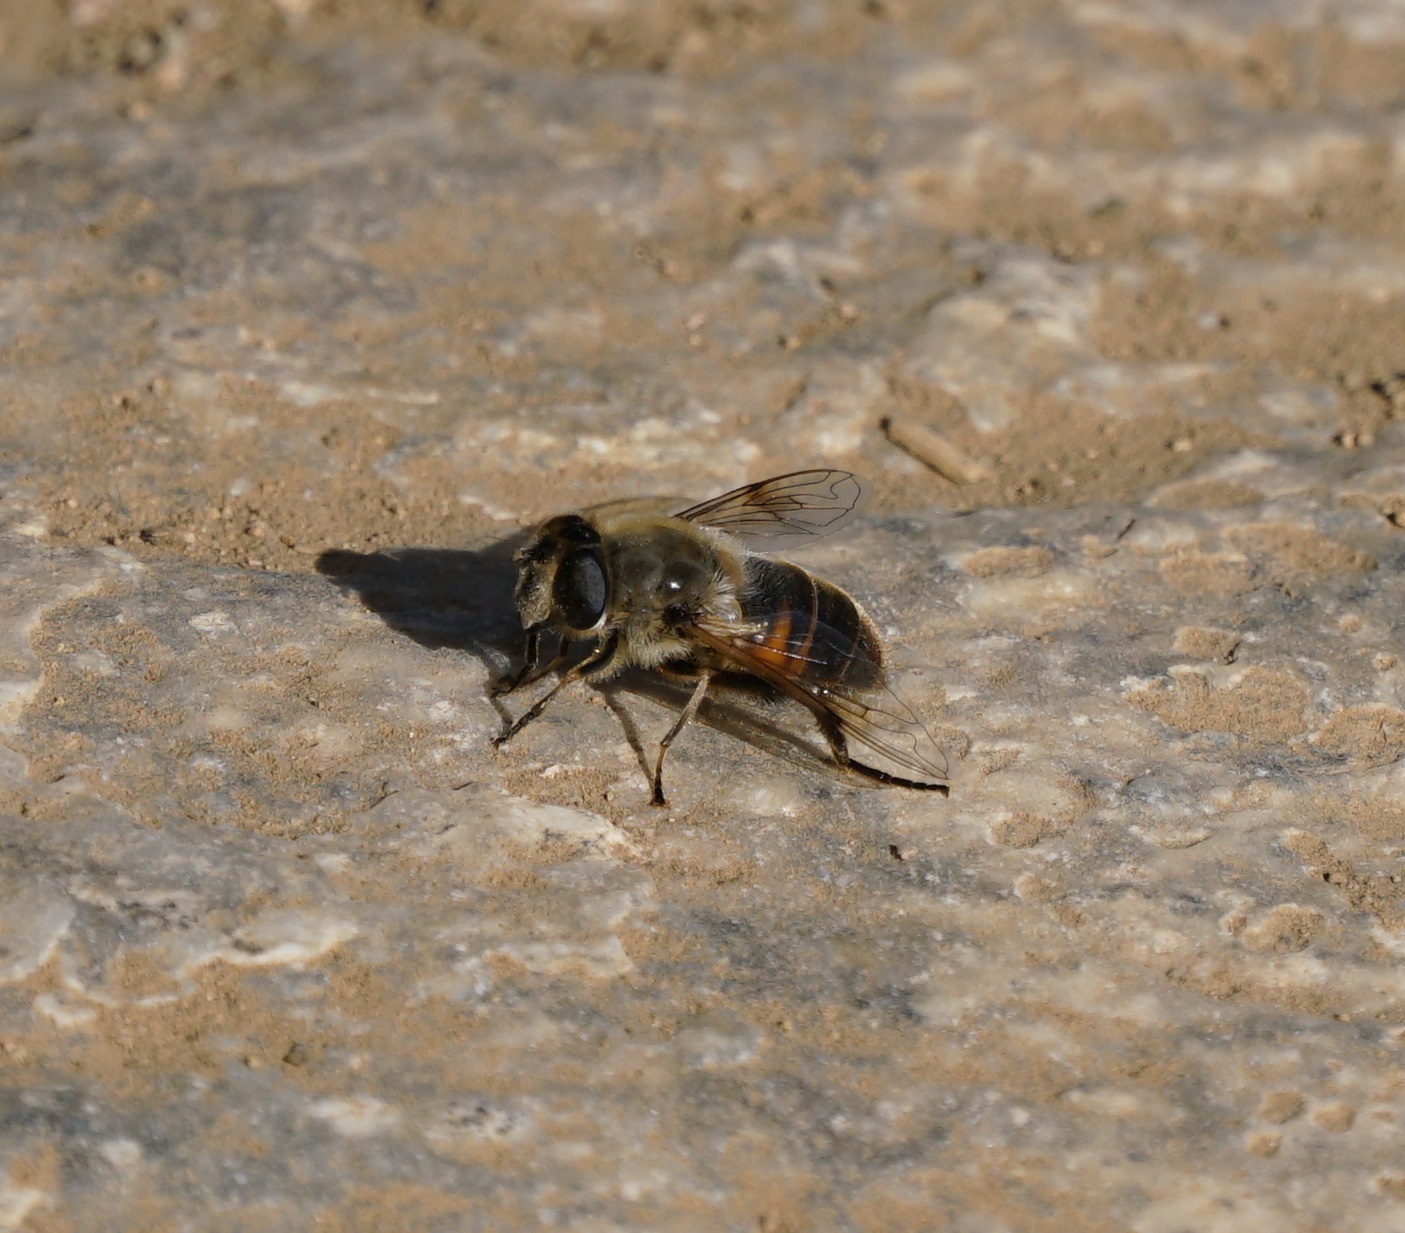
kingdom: Animalia
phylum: Arthropoda
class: Insecta
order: Diptera
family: Syrphidae
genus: Eristalis
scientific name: Eristalis tenax
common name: Drone fly
